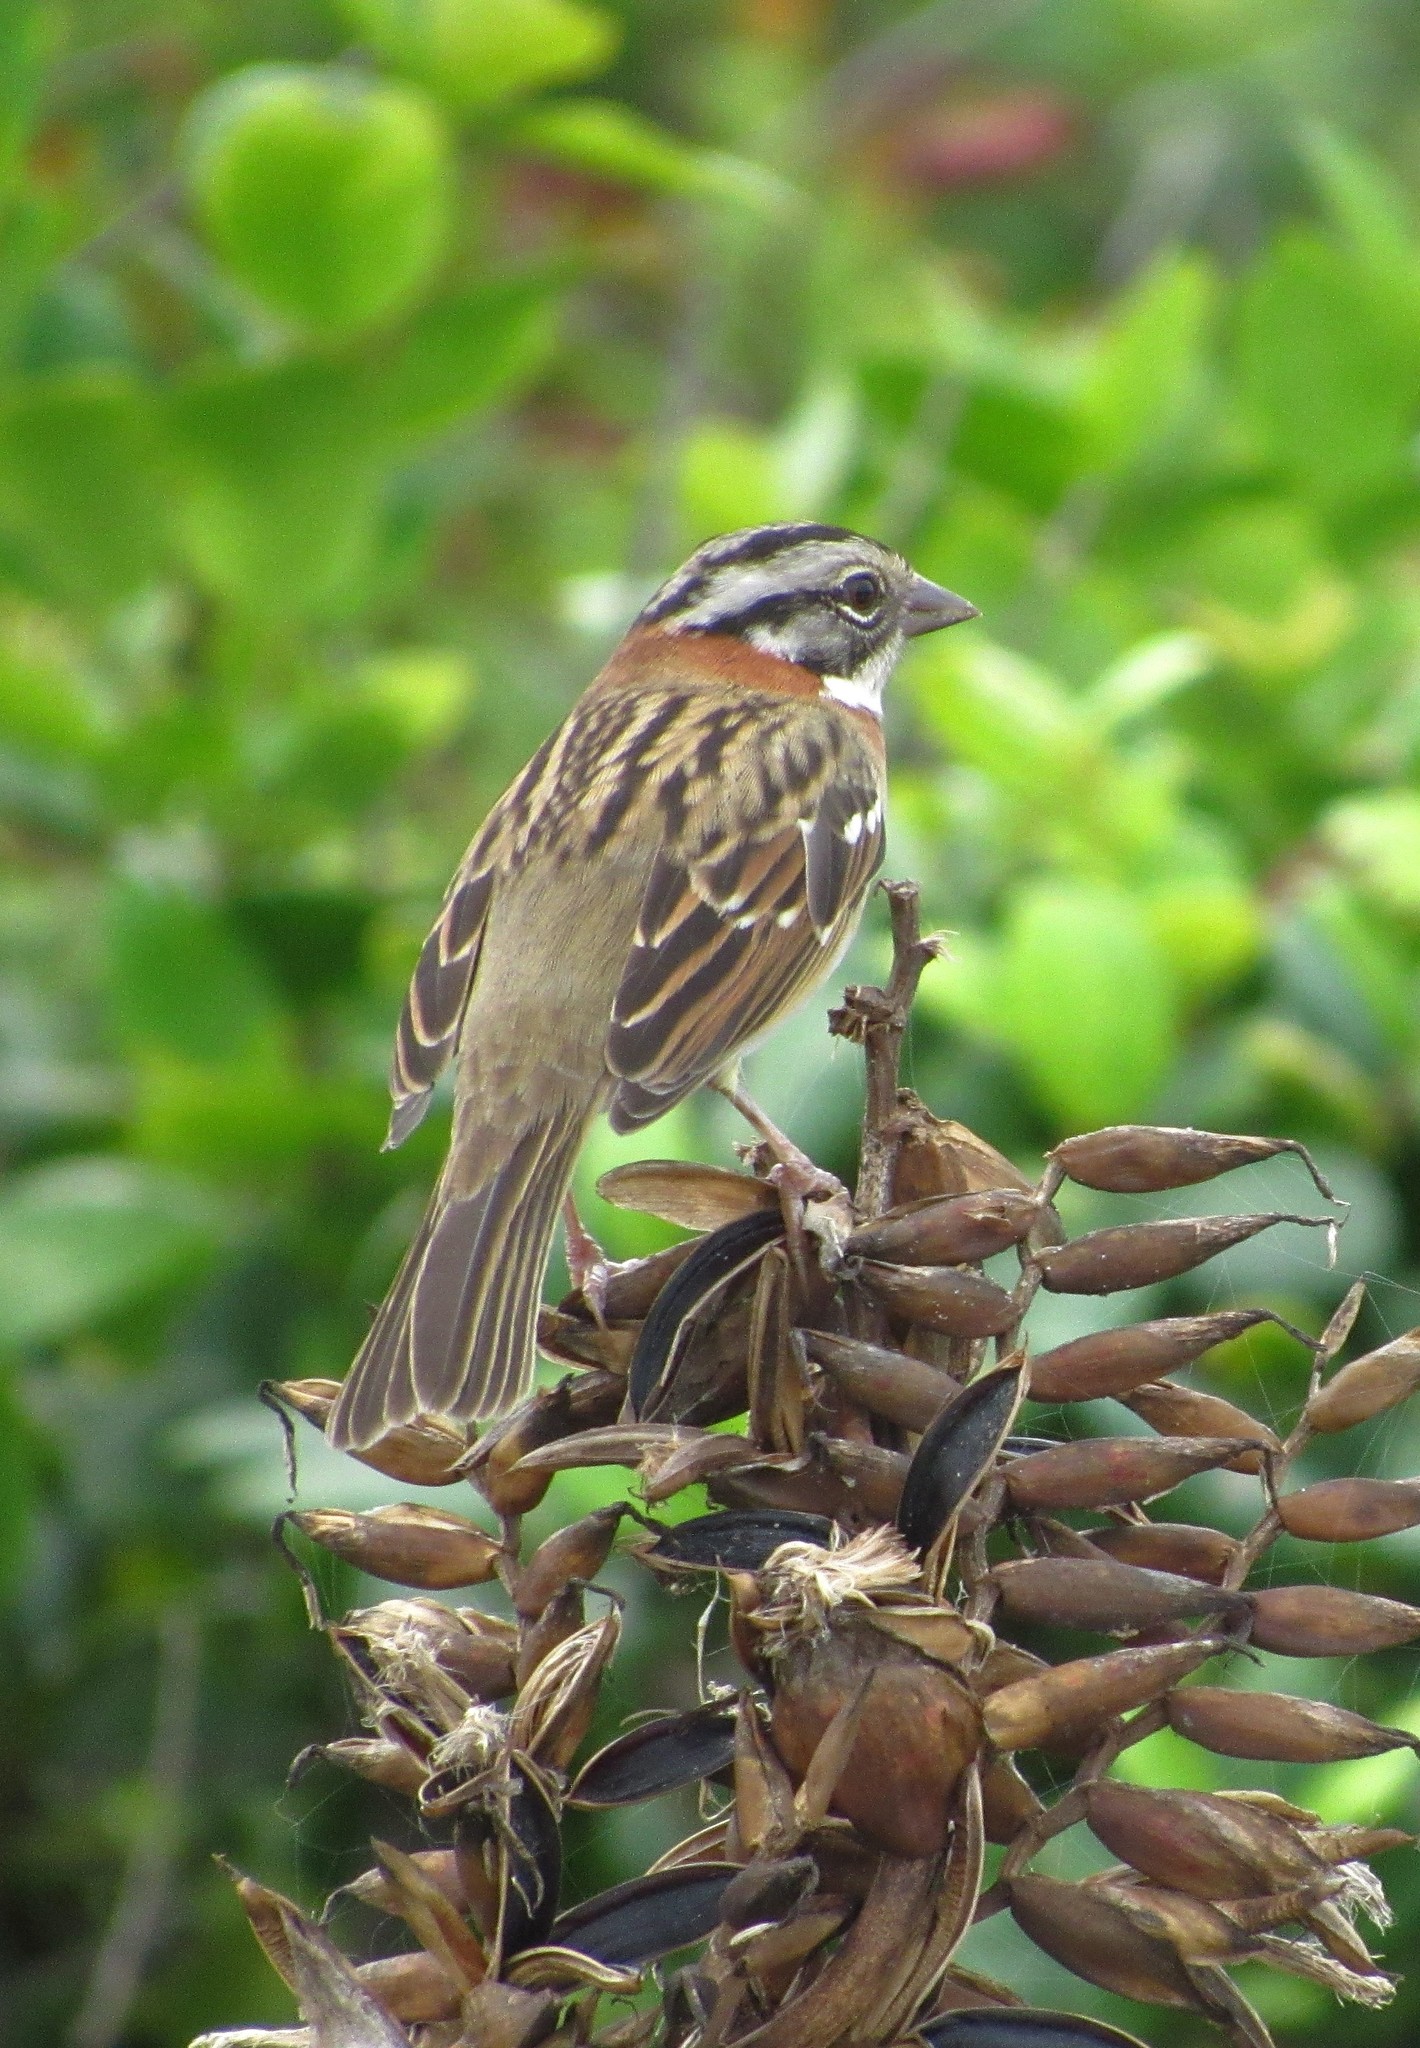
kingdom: Animalia
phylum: Chordata
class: Aves
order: Passeriformes
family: Passerellidae
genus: Zonotrichia
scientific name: Zonotrichia capensis
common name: Rufous-collared sparrow
